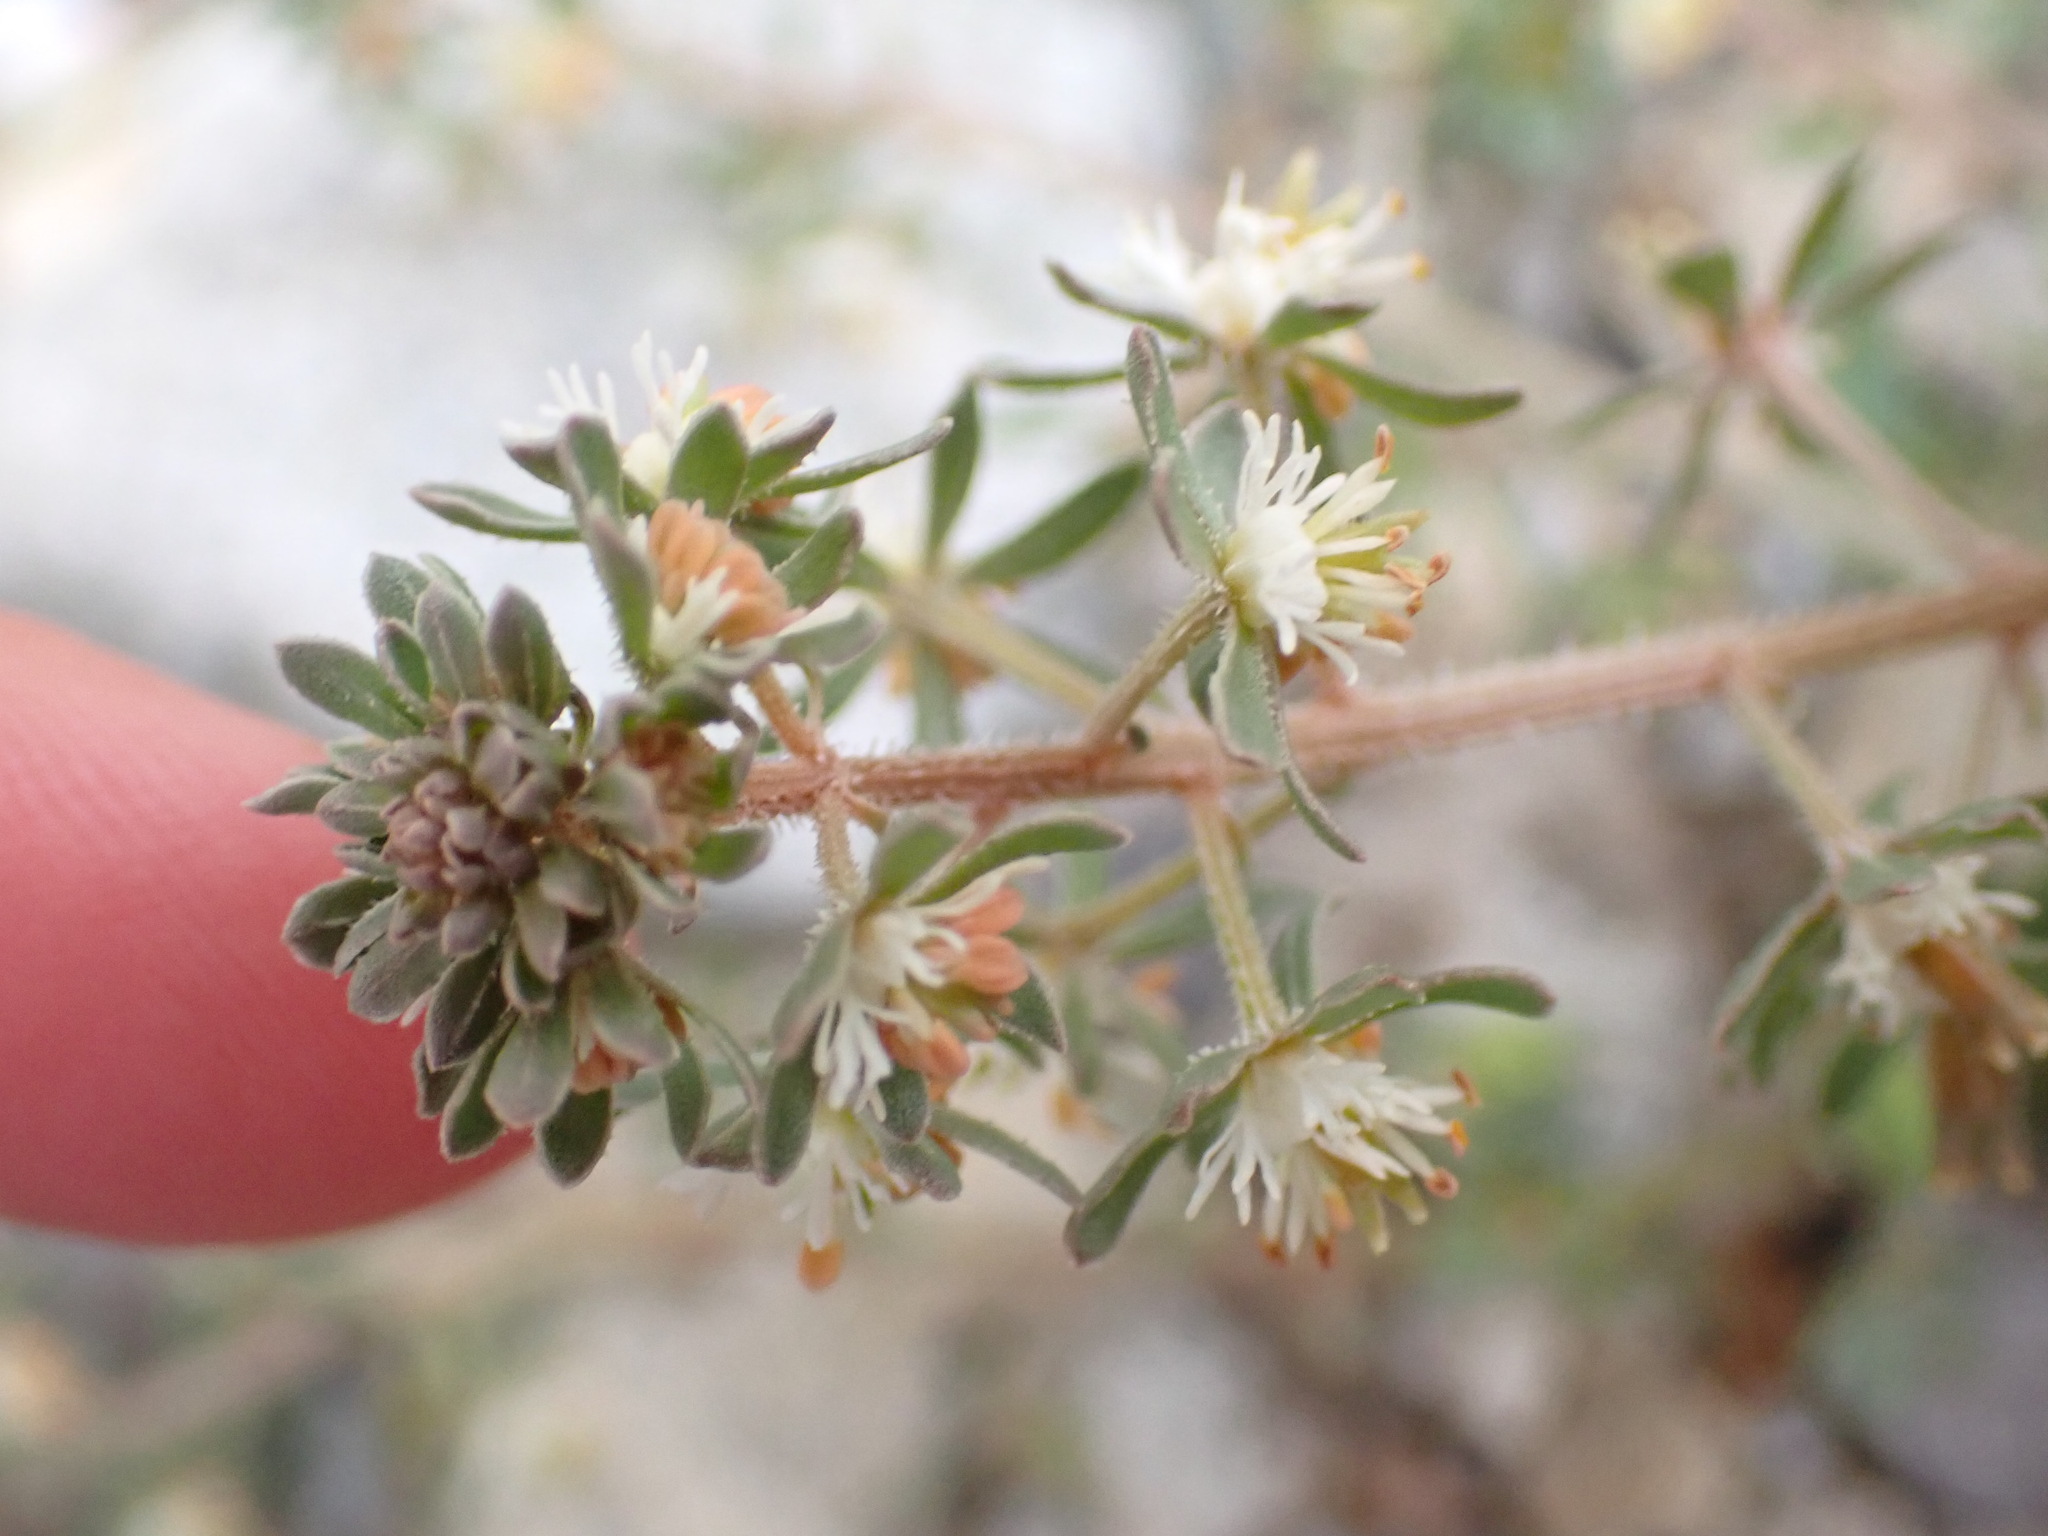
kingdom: Plantae
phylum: Tracheophyta
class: Magnoliopsida
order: Brassicales
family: Resedaceae
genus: Reseda
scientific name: Reseda phyteuma
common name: Corn mignonette
